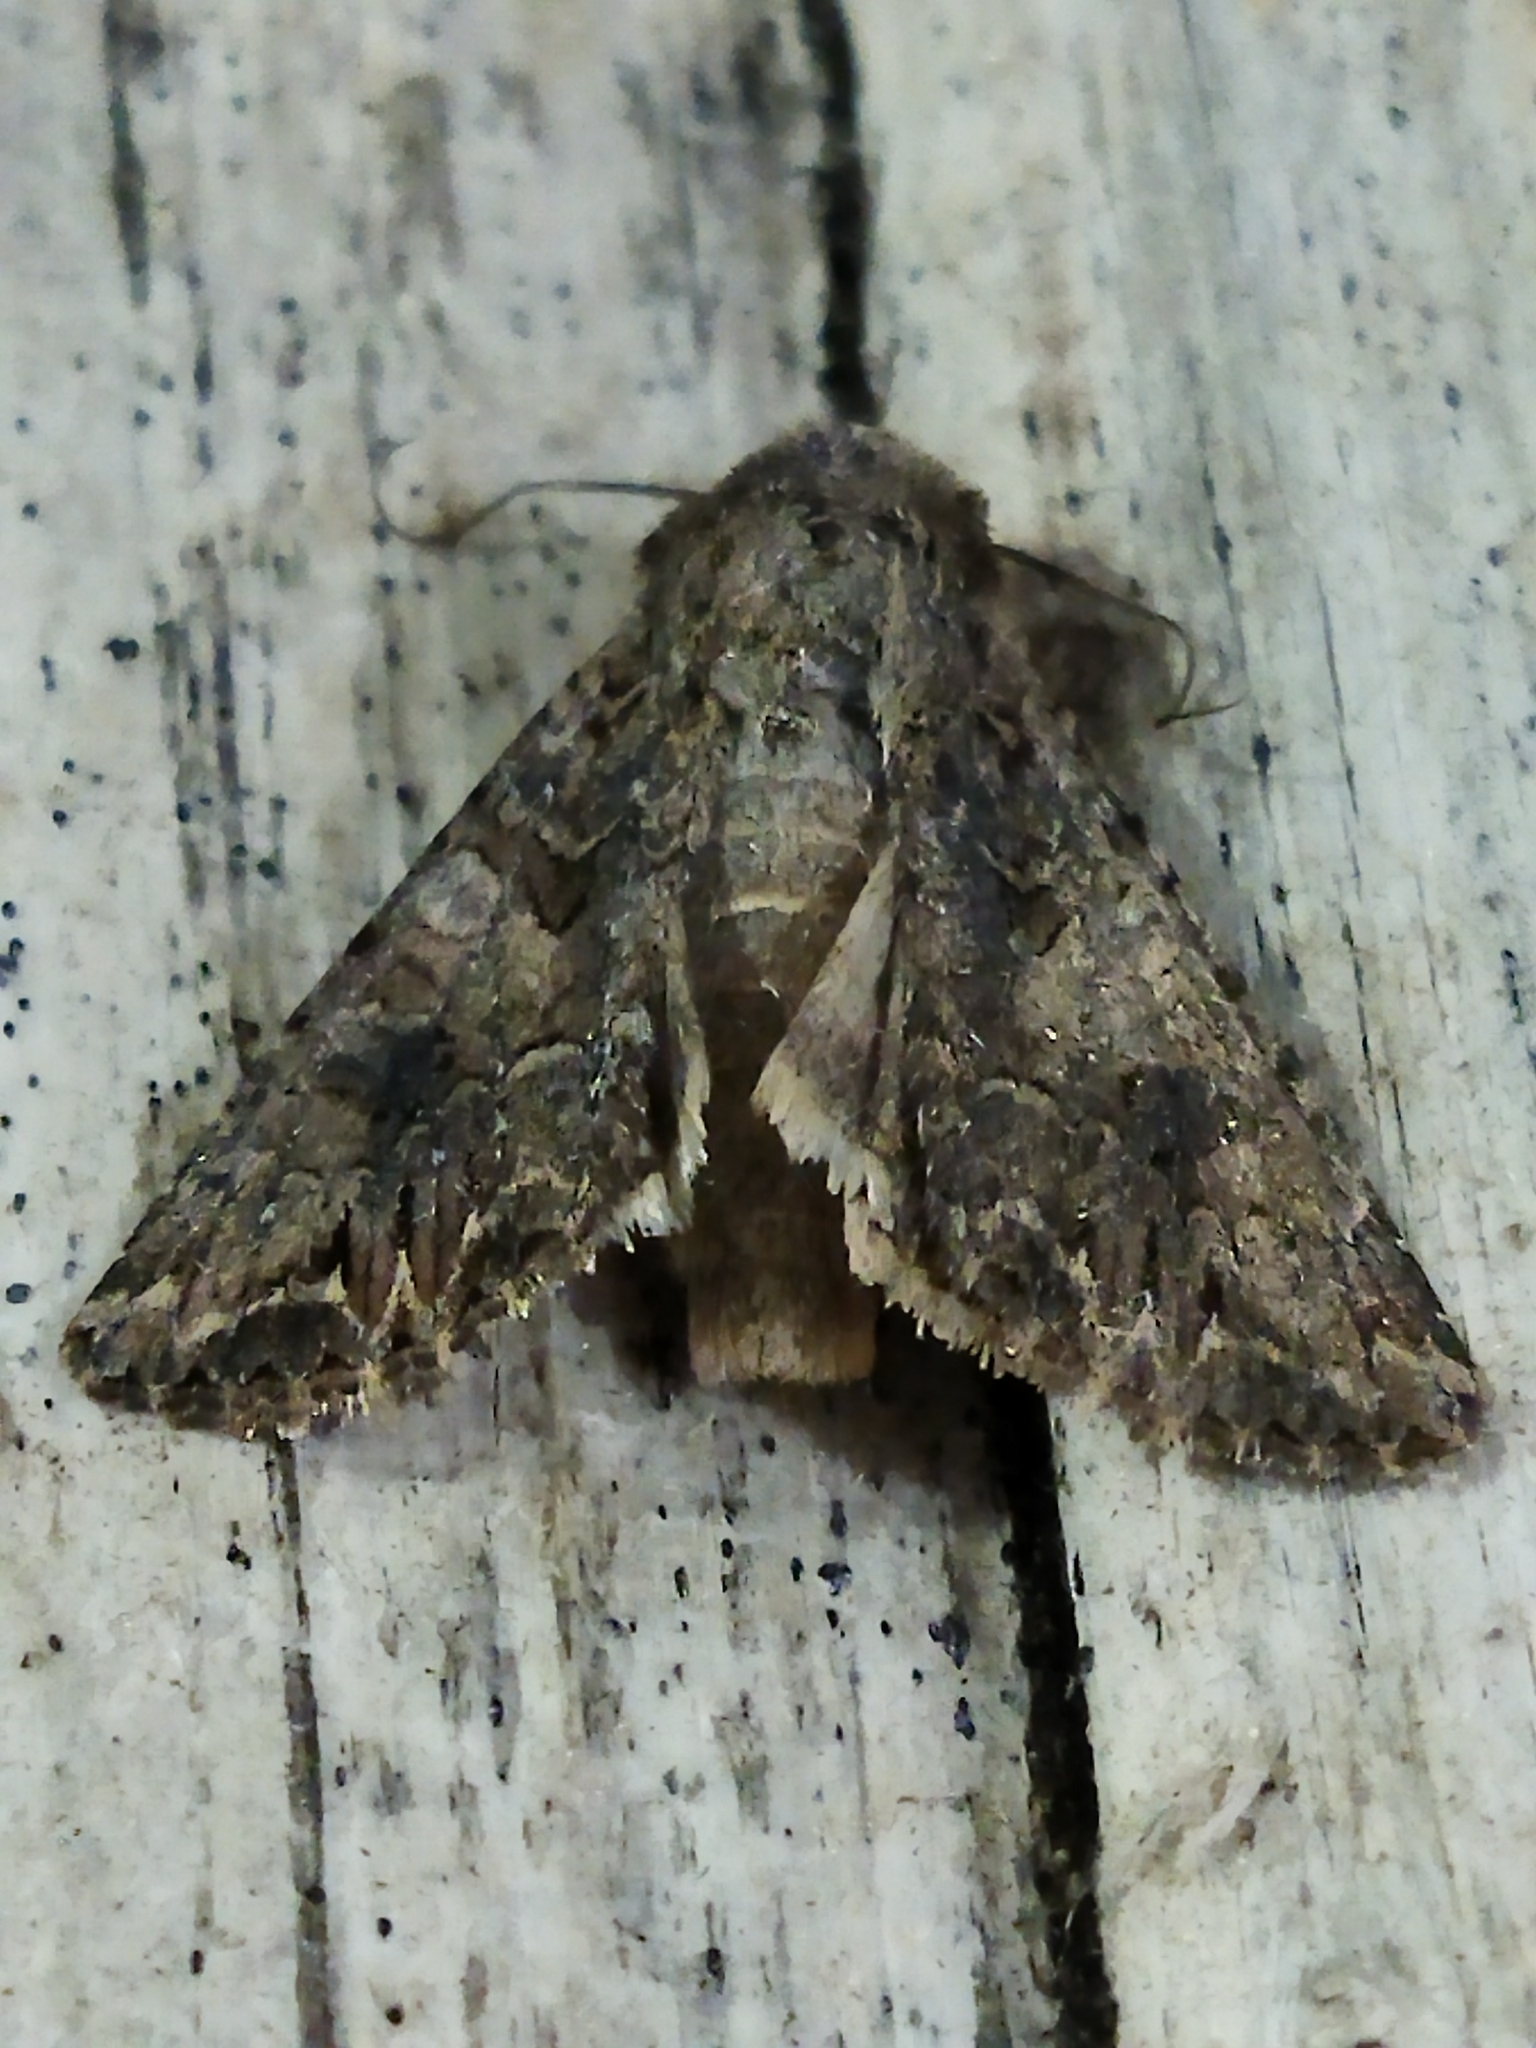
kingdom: Animalia
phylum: Arthropoda
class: Insecta
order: Lepidoptera
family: Noctuidae
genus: Anarta
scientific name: Anarta trifolii
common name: Clover cutworm moth
